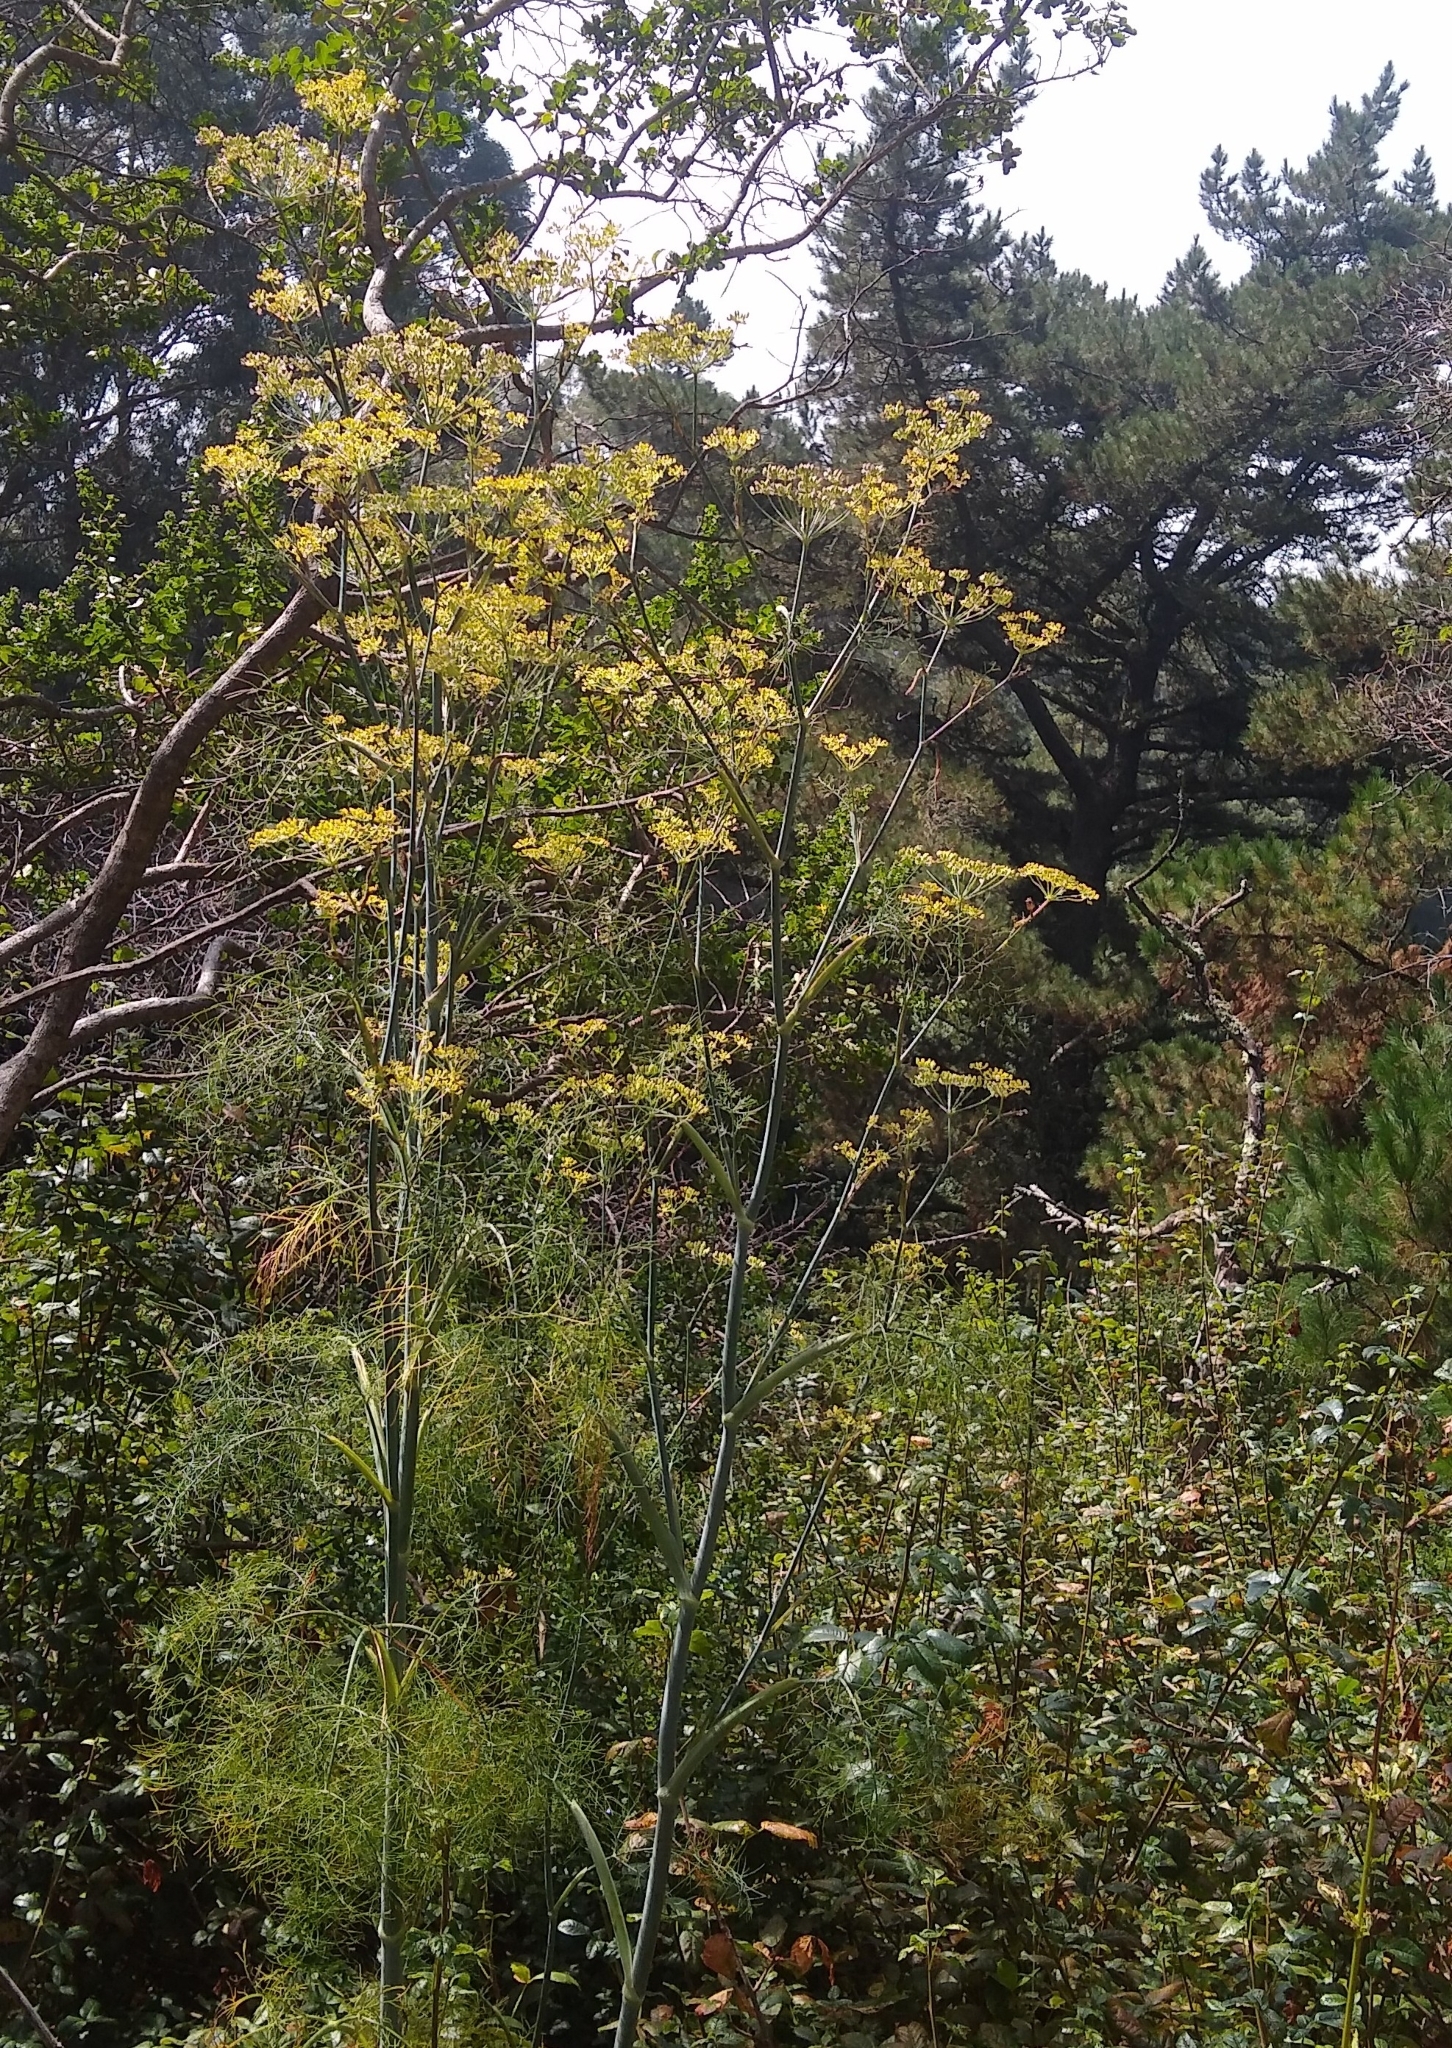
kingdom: Plantae
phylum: Tracheophyta
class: Magnoliopsida
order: Apiales
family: Apiaceae
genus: Foeniculum
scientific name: Foeniculum vulgare
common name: Fennel
